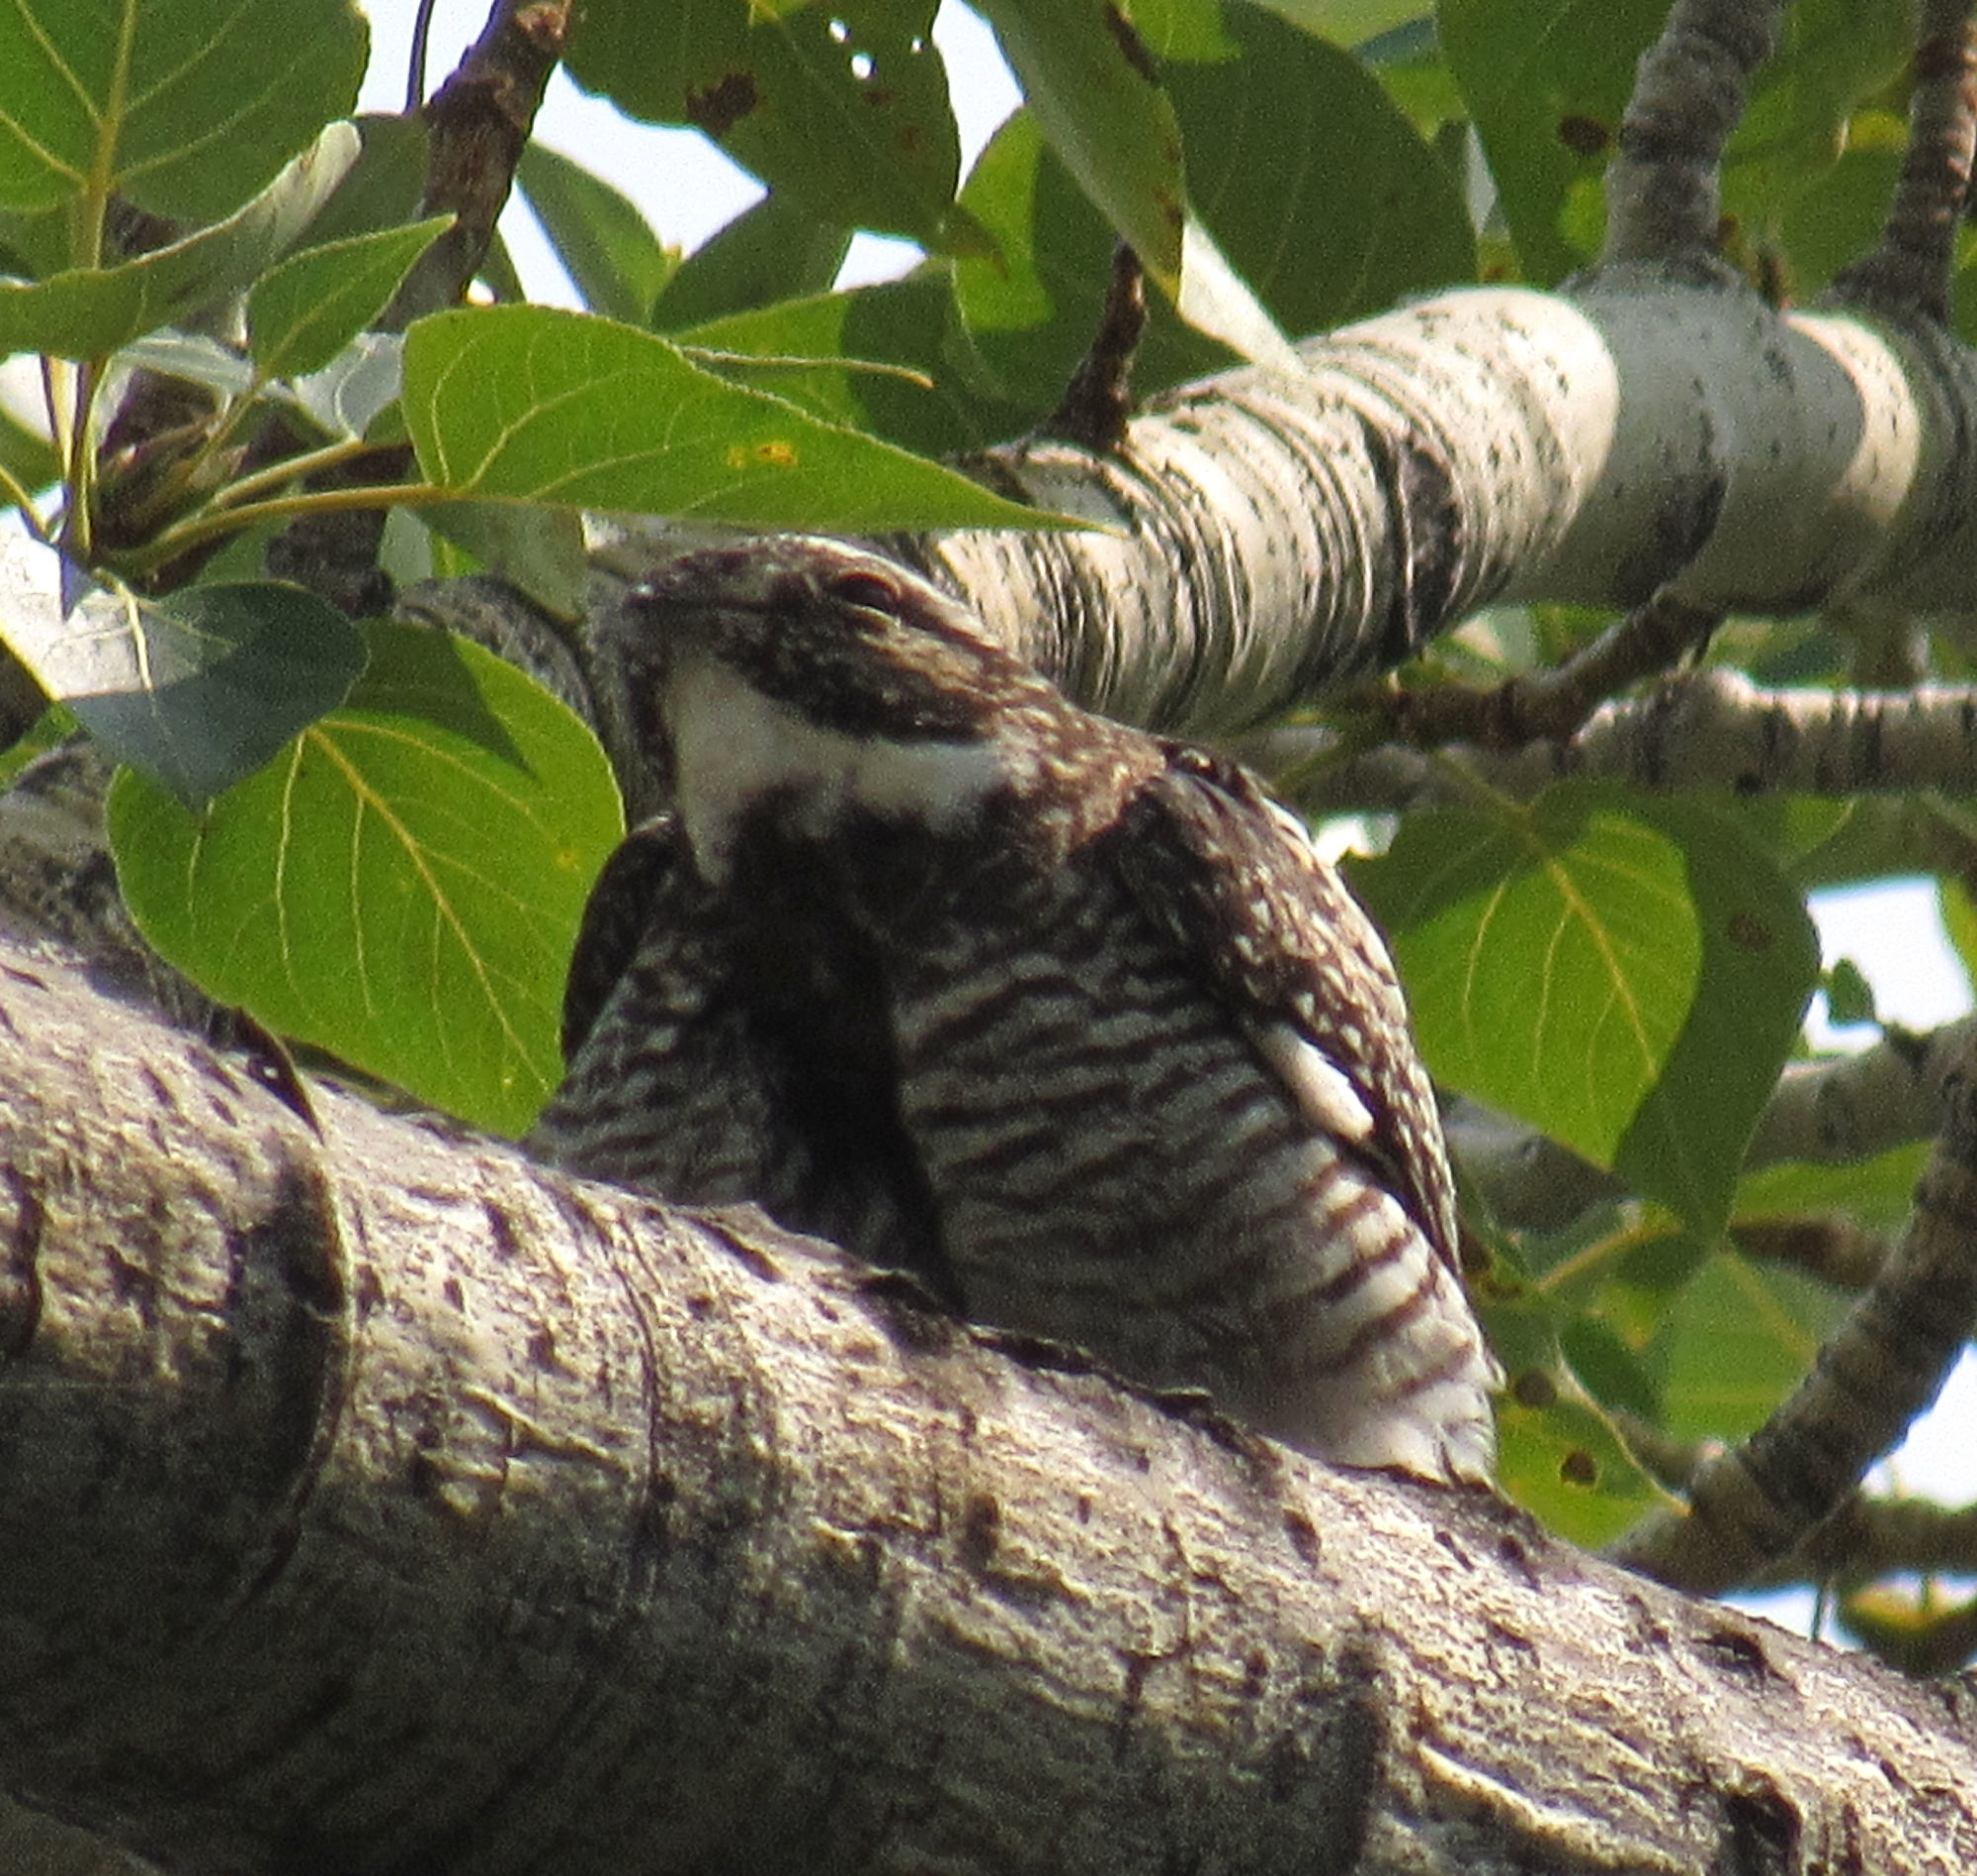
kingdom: Animalia
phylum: Chordata
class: Aves
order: Caprimulgiformes
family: Caprimulgidae
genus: Chordeiles
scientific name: Chordeiles minor
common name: Common nighthawk
